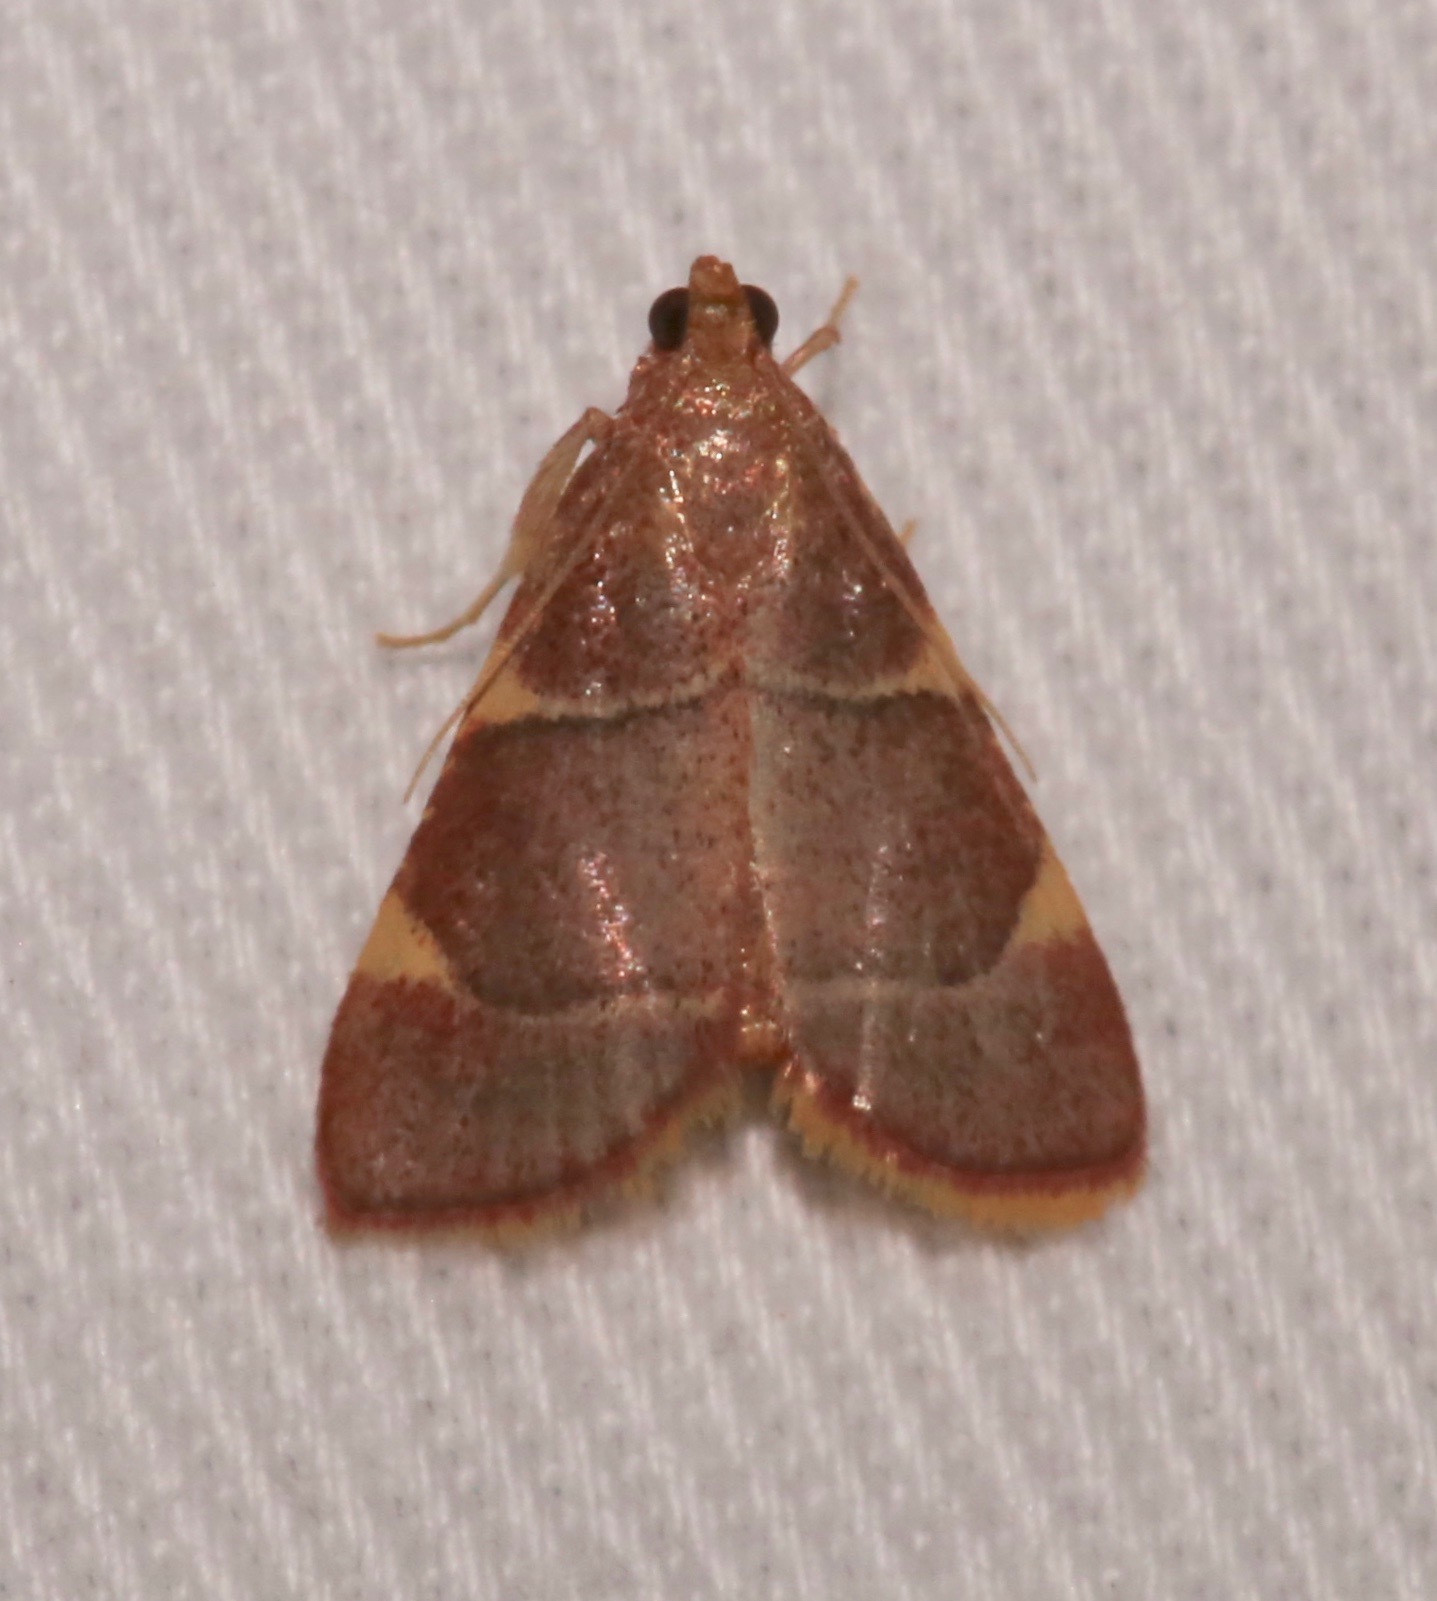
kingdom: Animalia
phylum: Arthropoda
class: Insecta
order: Lepidoptera
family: Pyralidae
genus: Hypsopygia
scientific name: Hypsopygia olinalis
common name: Yellow-fringed dolichomia moth
